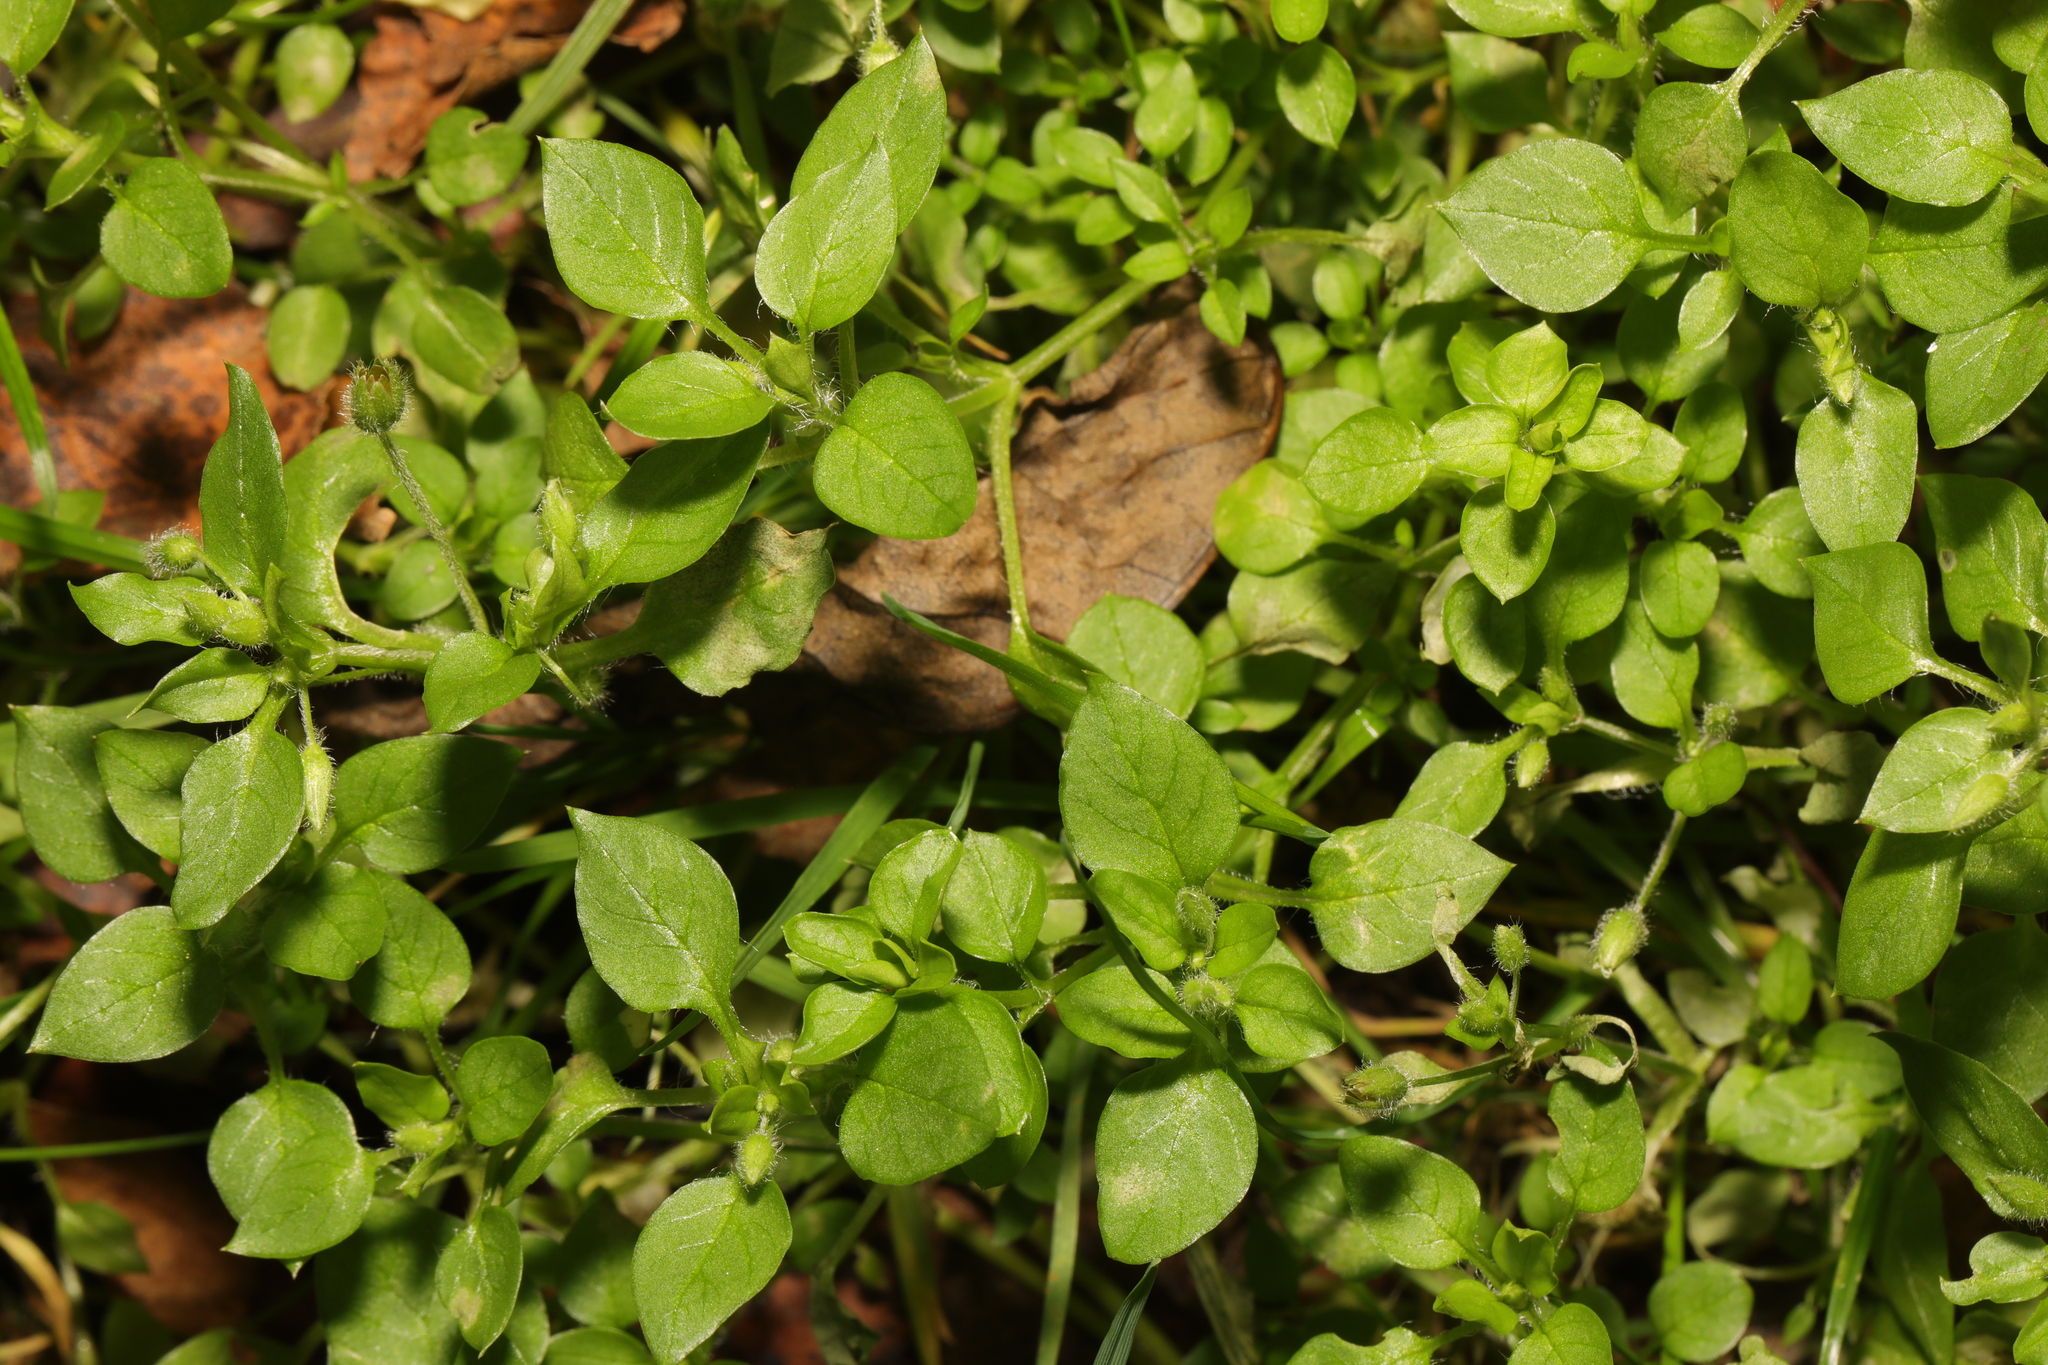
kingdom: Plantae
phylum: Tracheophyta
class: Magnoliopsida
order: Caryophyllales
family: Caryophyllaceae
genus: Stellaria
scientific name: Stellaria media
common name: Common chickweed
